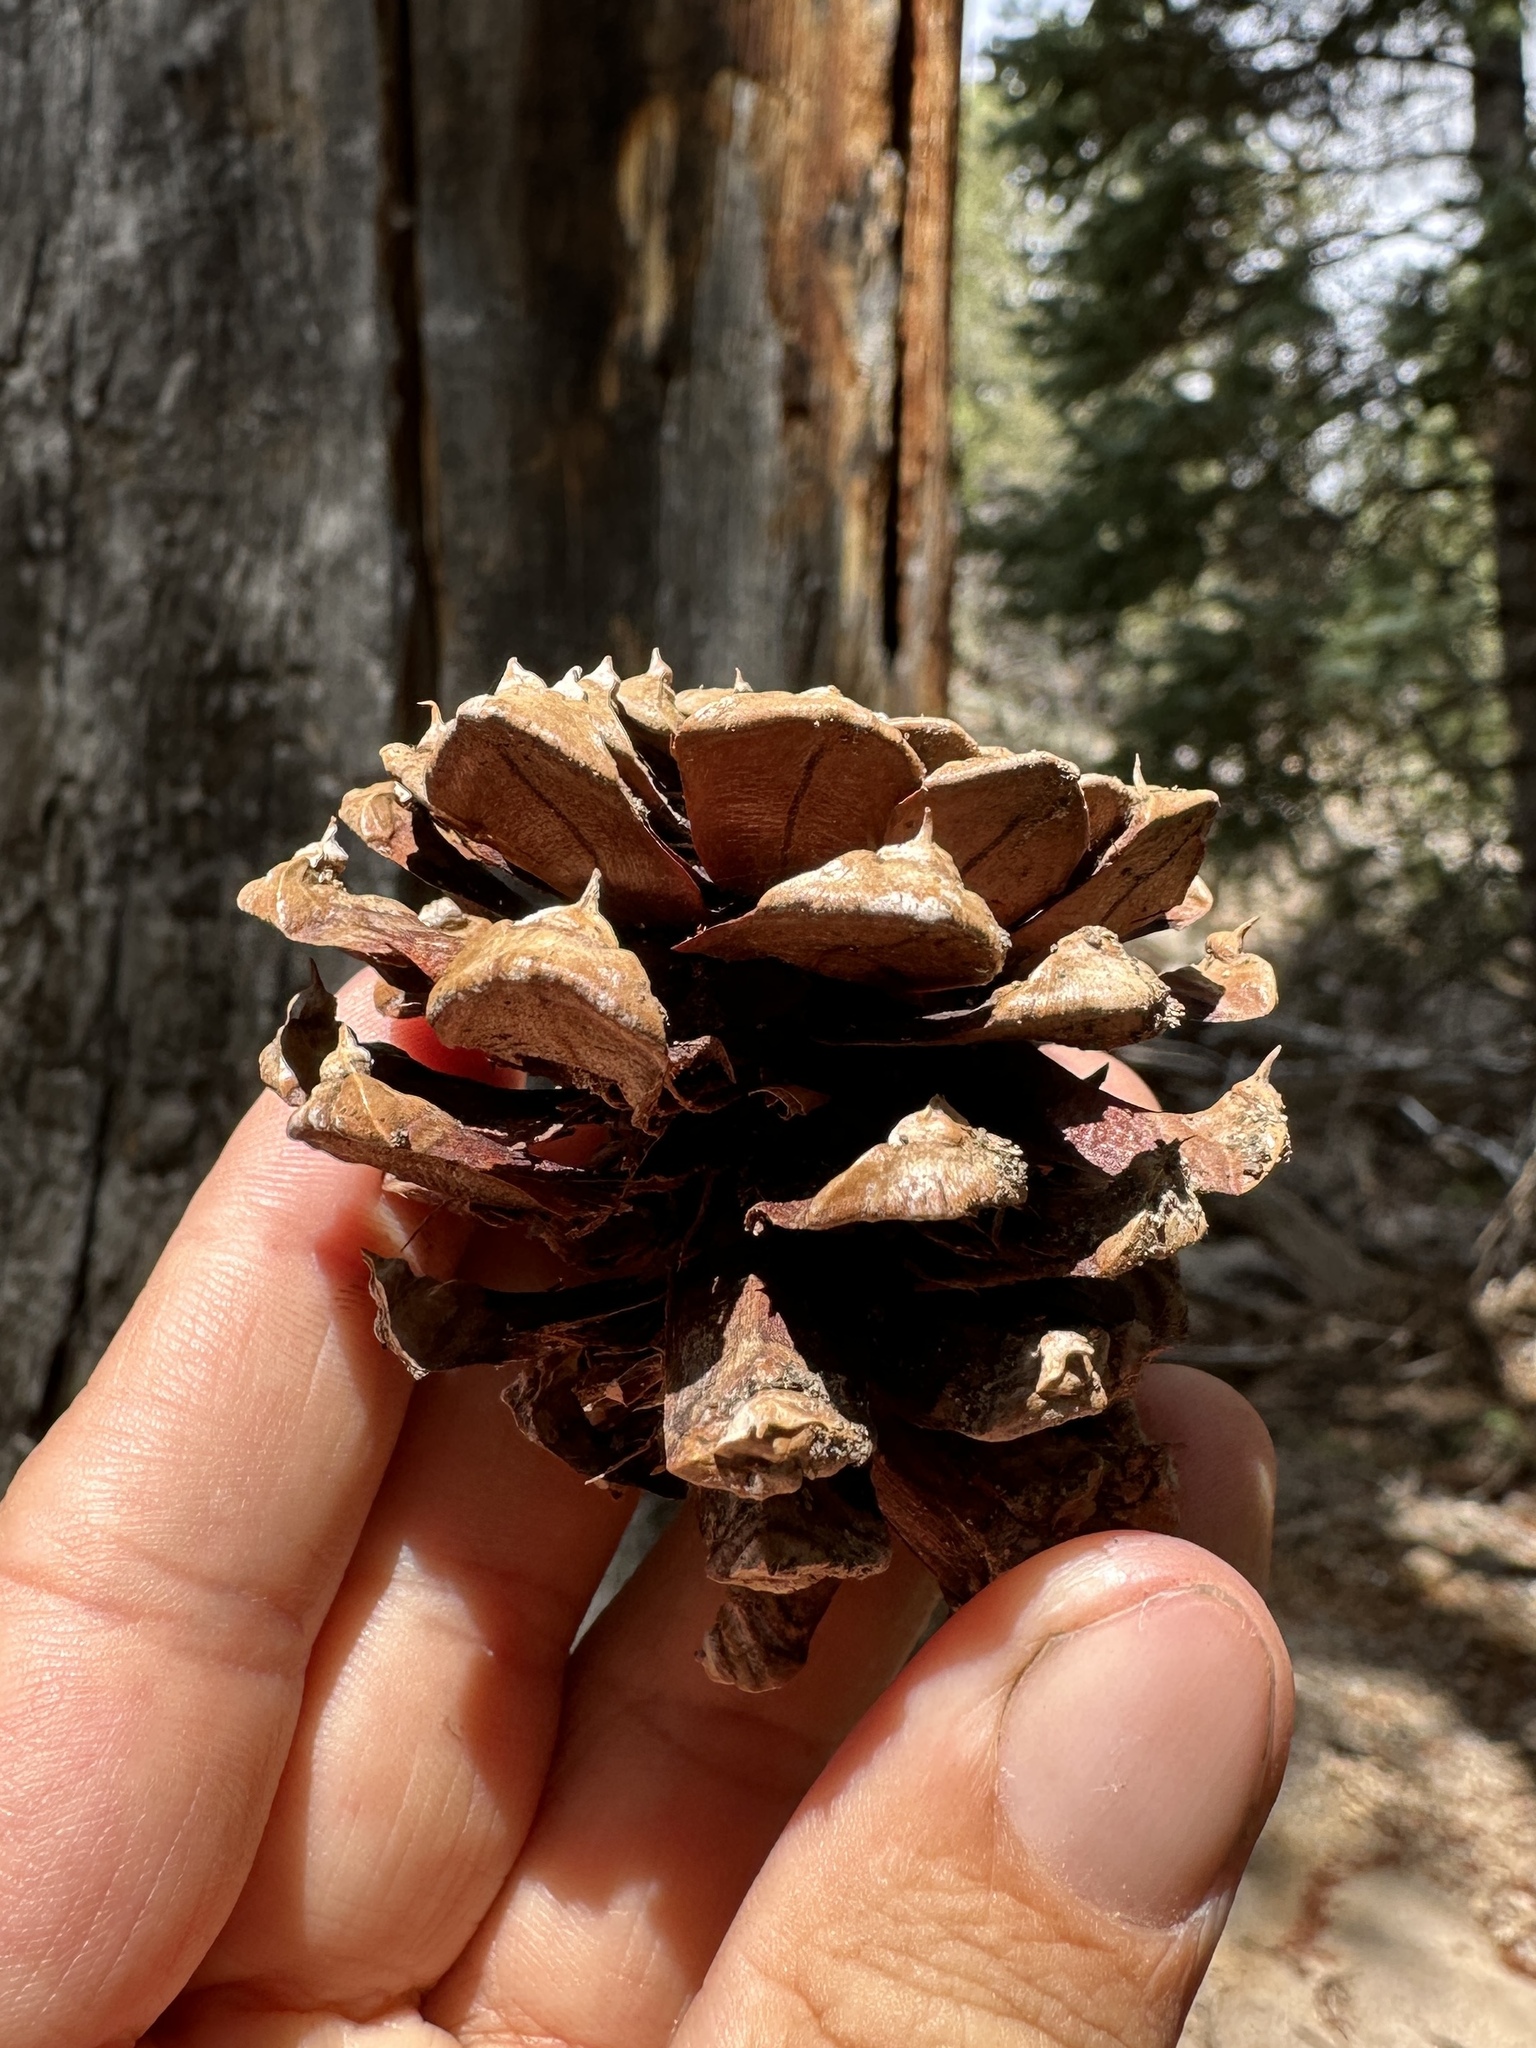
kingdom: Plantae
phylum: Tracheophyta
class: Pinopsida
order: Pinales
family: Pinaceae
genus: Pinus
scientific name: Pinus ponderosa
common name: Western yellow-pine
